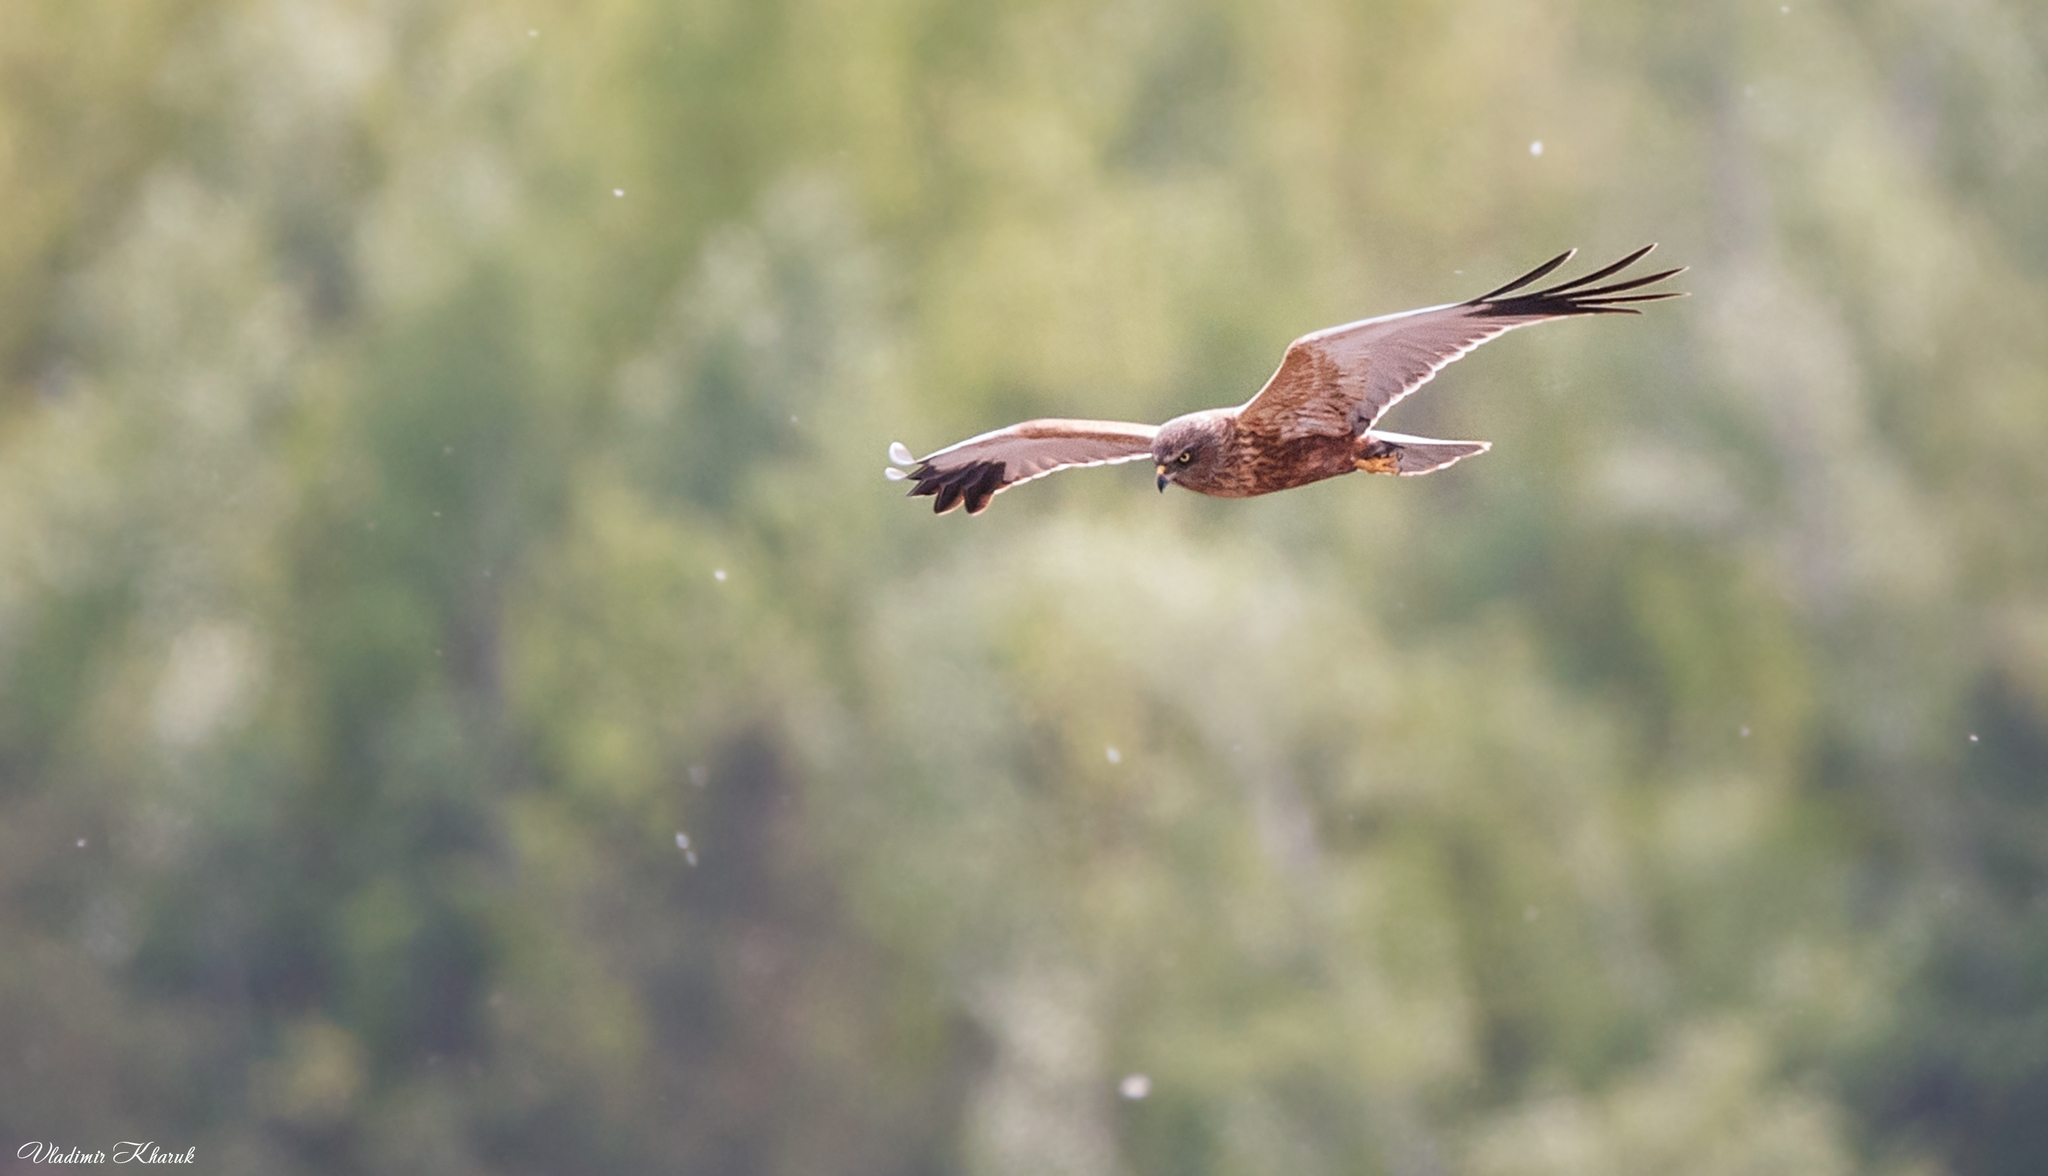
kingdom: Animalia
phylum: Chordata
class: Aves
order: Accipitriformes
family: Accipitridae
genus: Circus
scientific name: Circus aeruginosus
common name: Western marsh harrier
